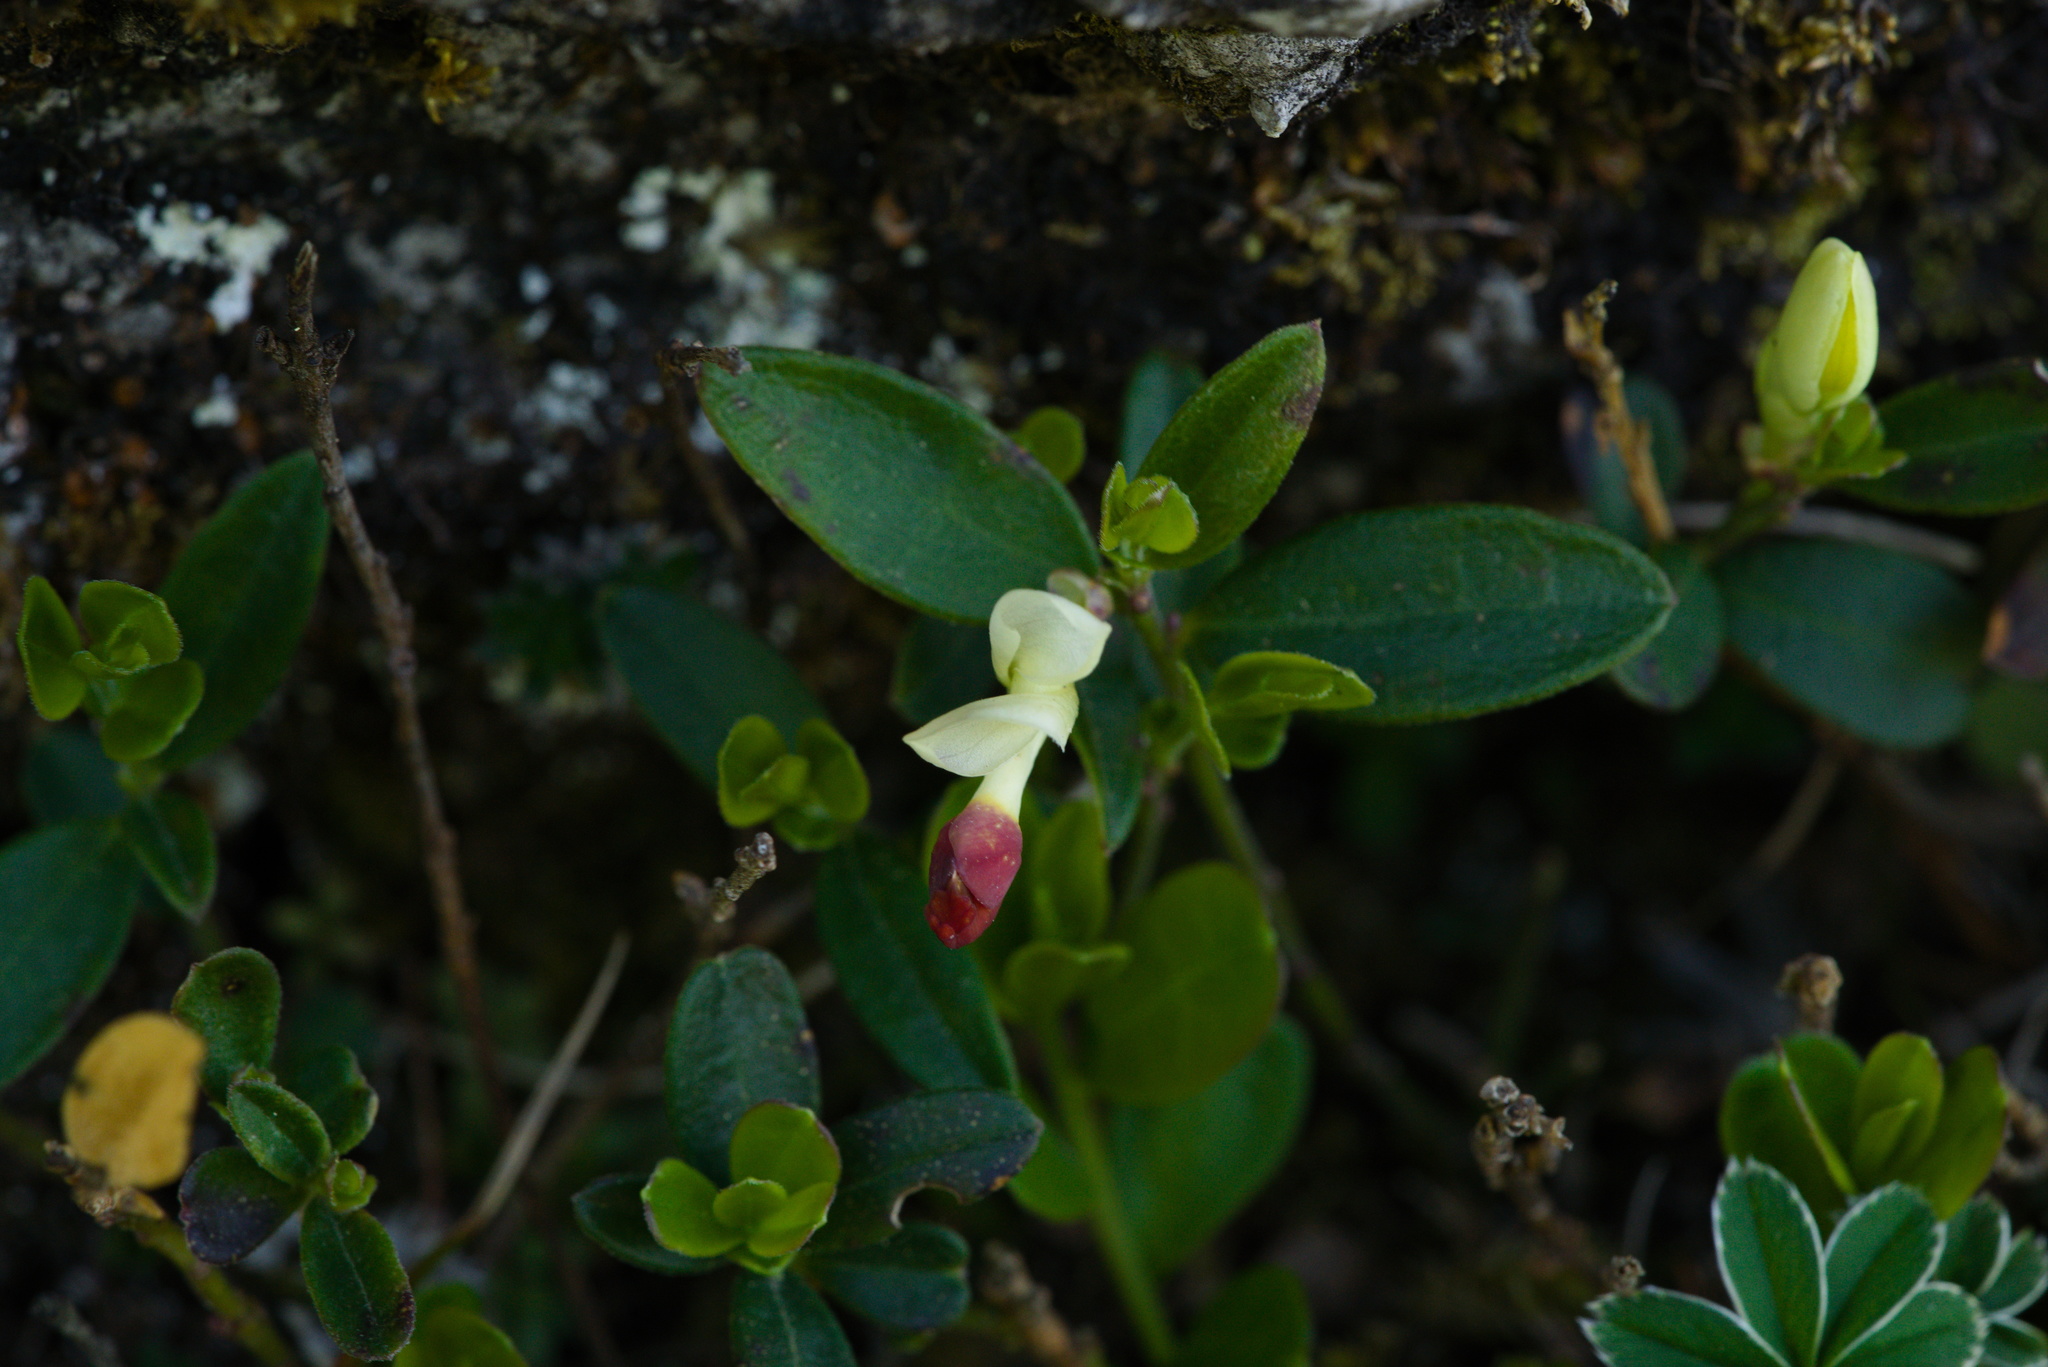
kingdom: Plantae
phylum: Tracheophyta
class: Magnoliopsida
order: Fabales
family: Polygalaceae
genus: Polygaloides
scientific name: Polygaloides chamaebuxus
